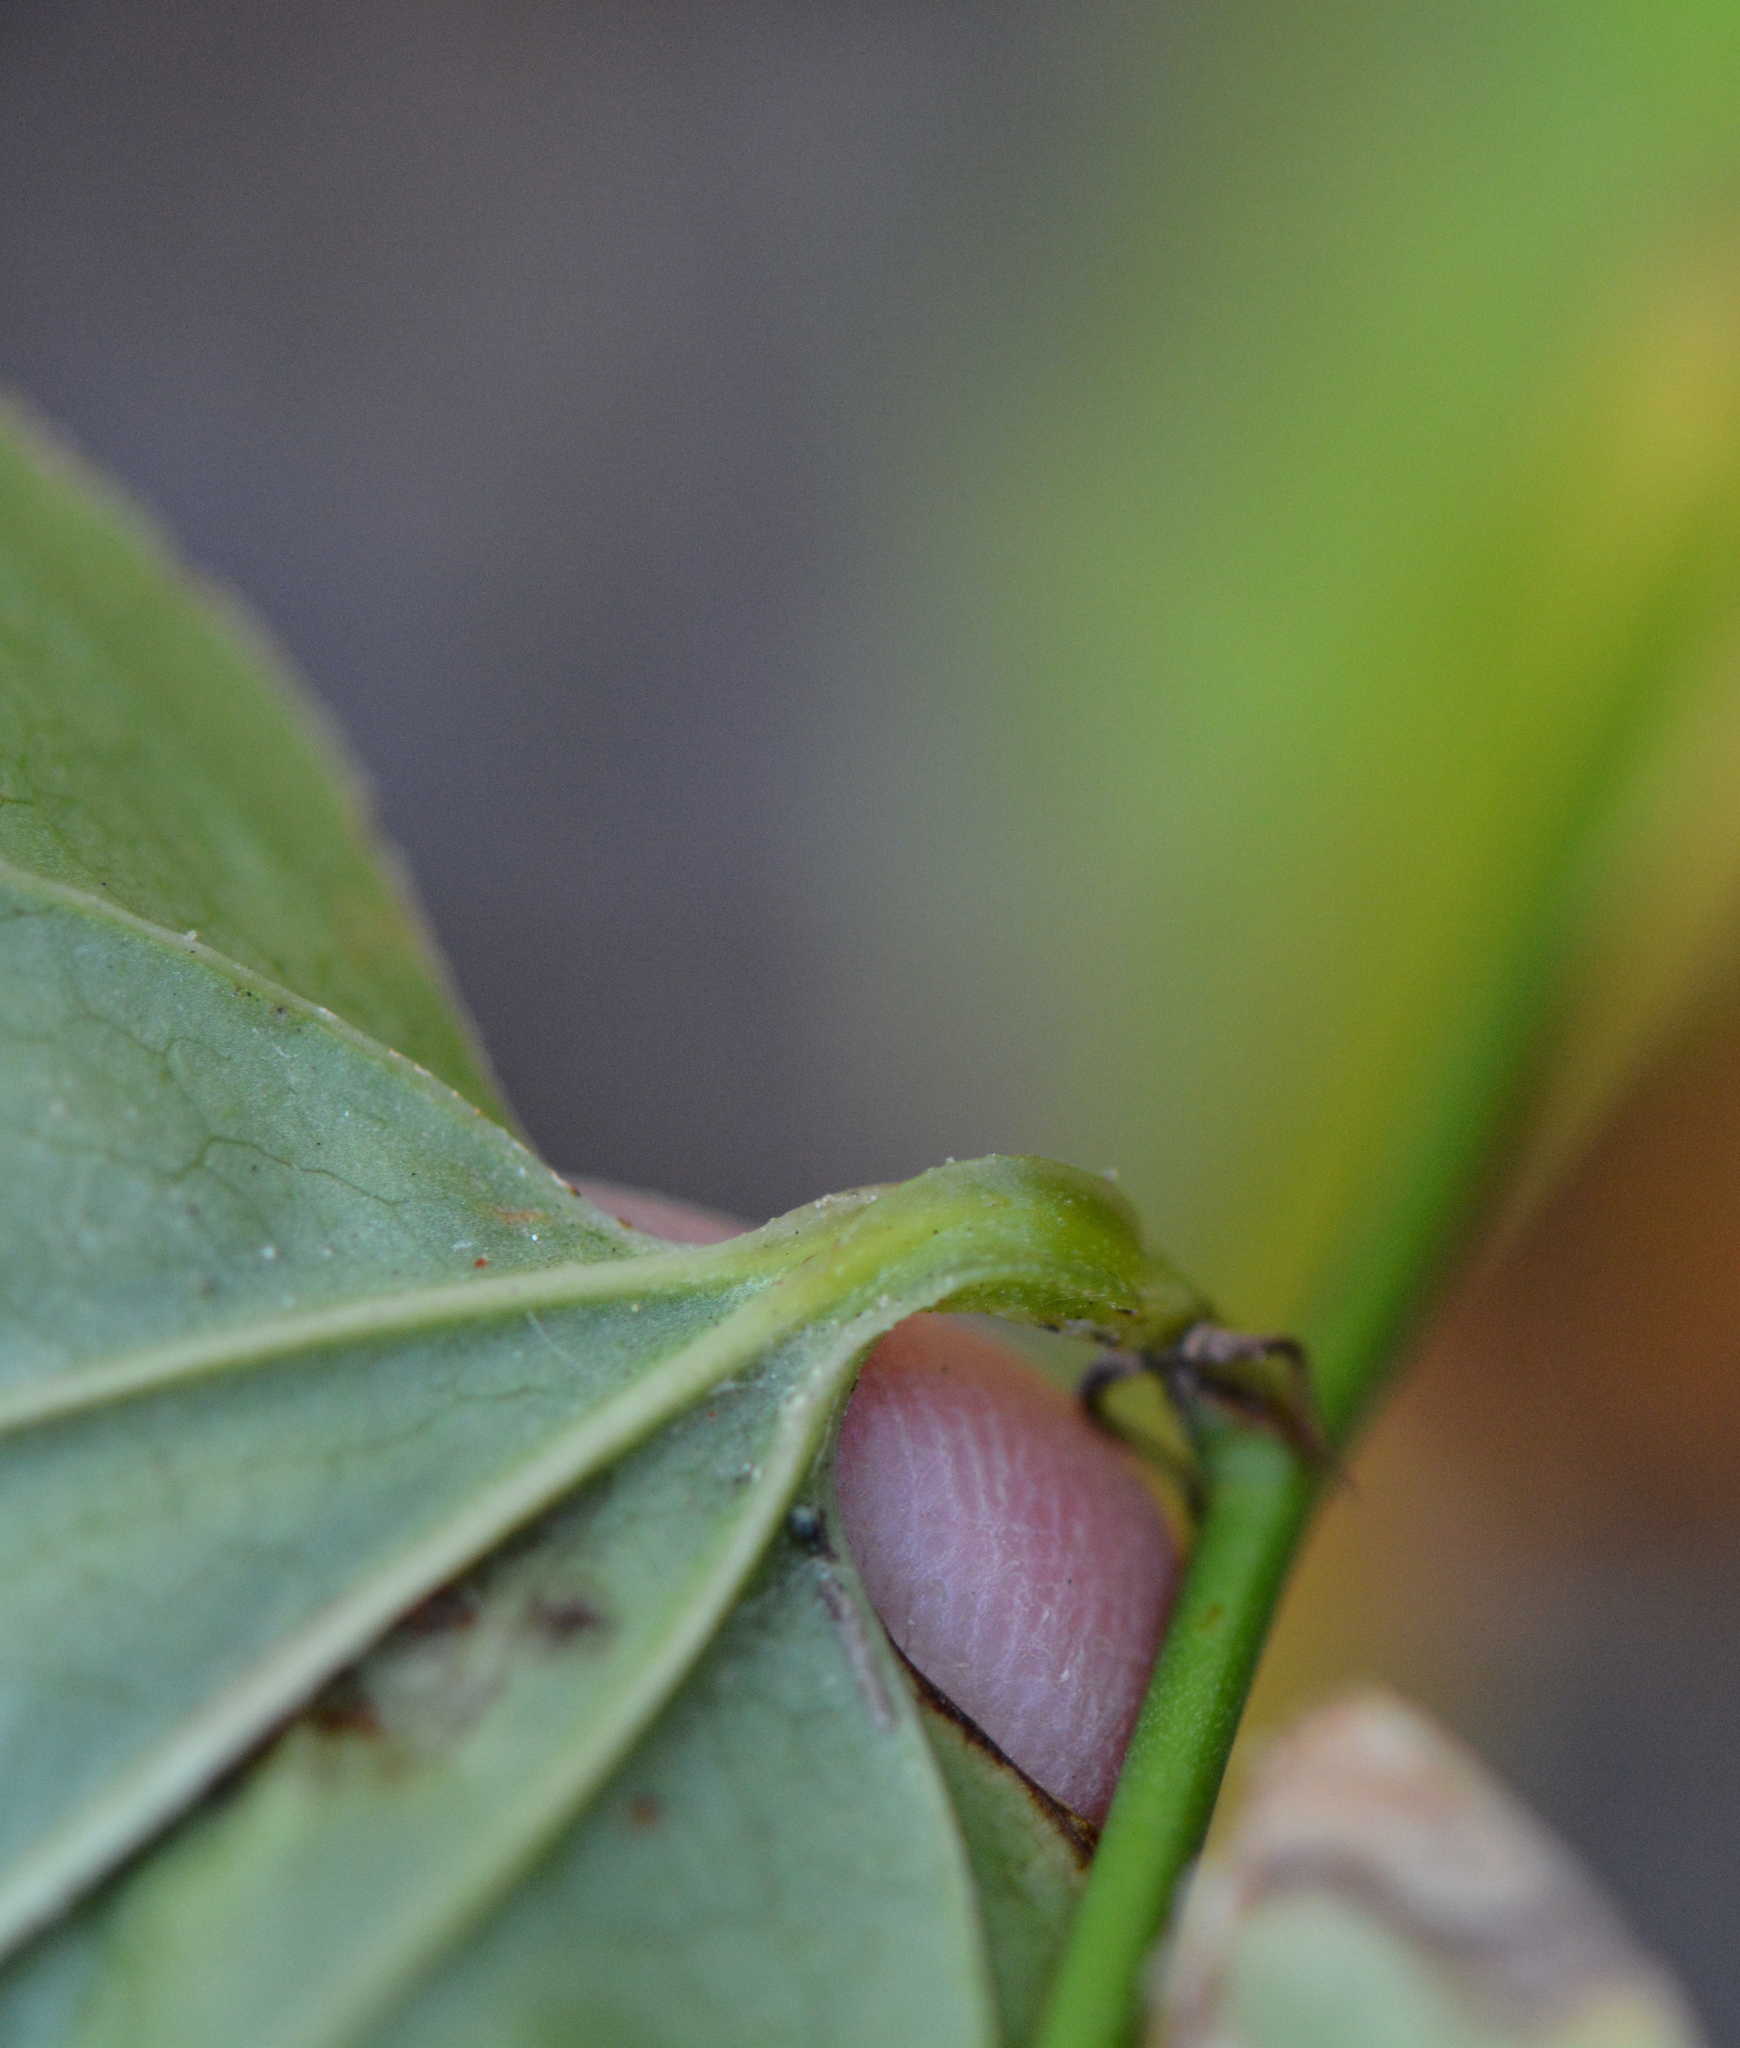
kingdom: Plantae
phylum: Tracheophyta
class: Liliopsida
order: Liliales
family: Smilacaceae
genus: Smilax
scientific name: Smilax tamnoides
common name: Hellfetter
